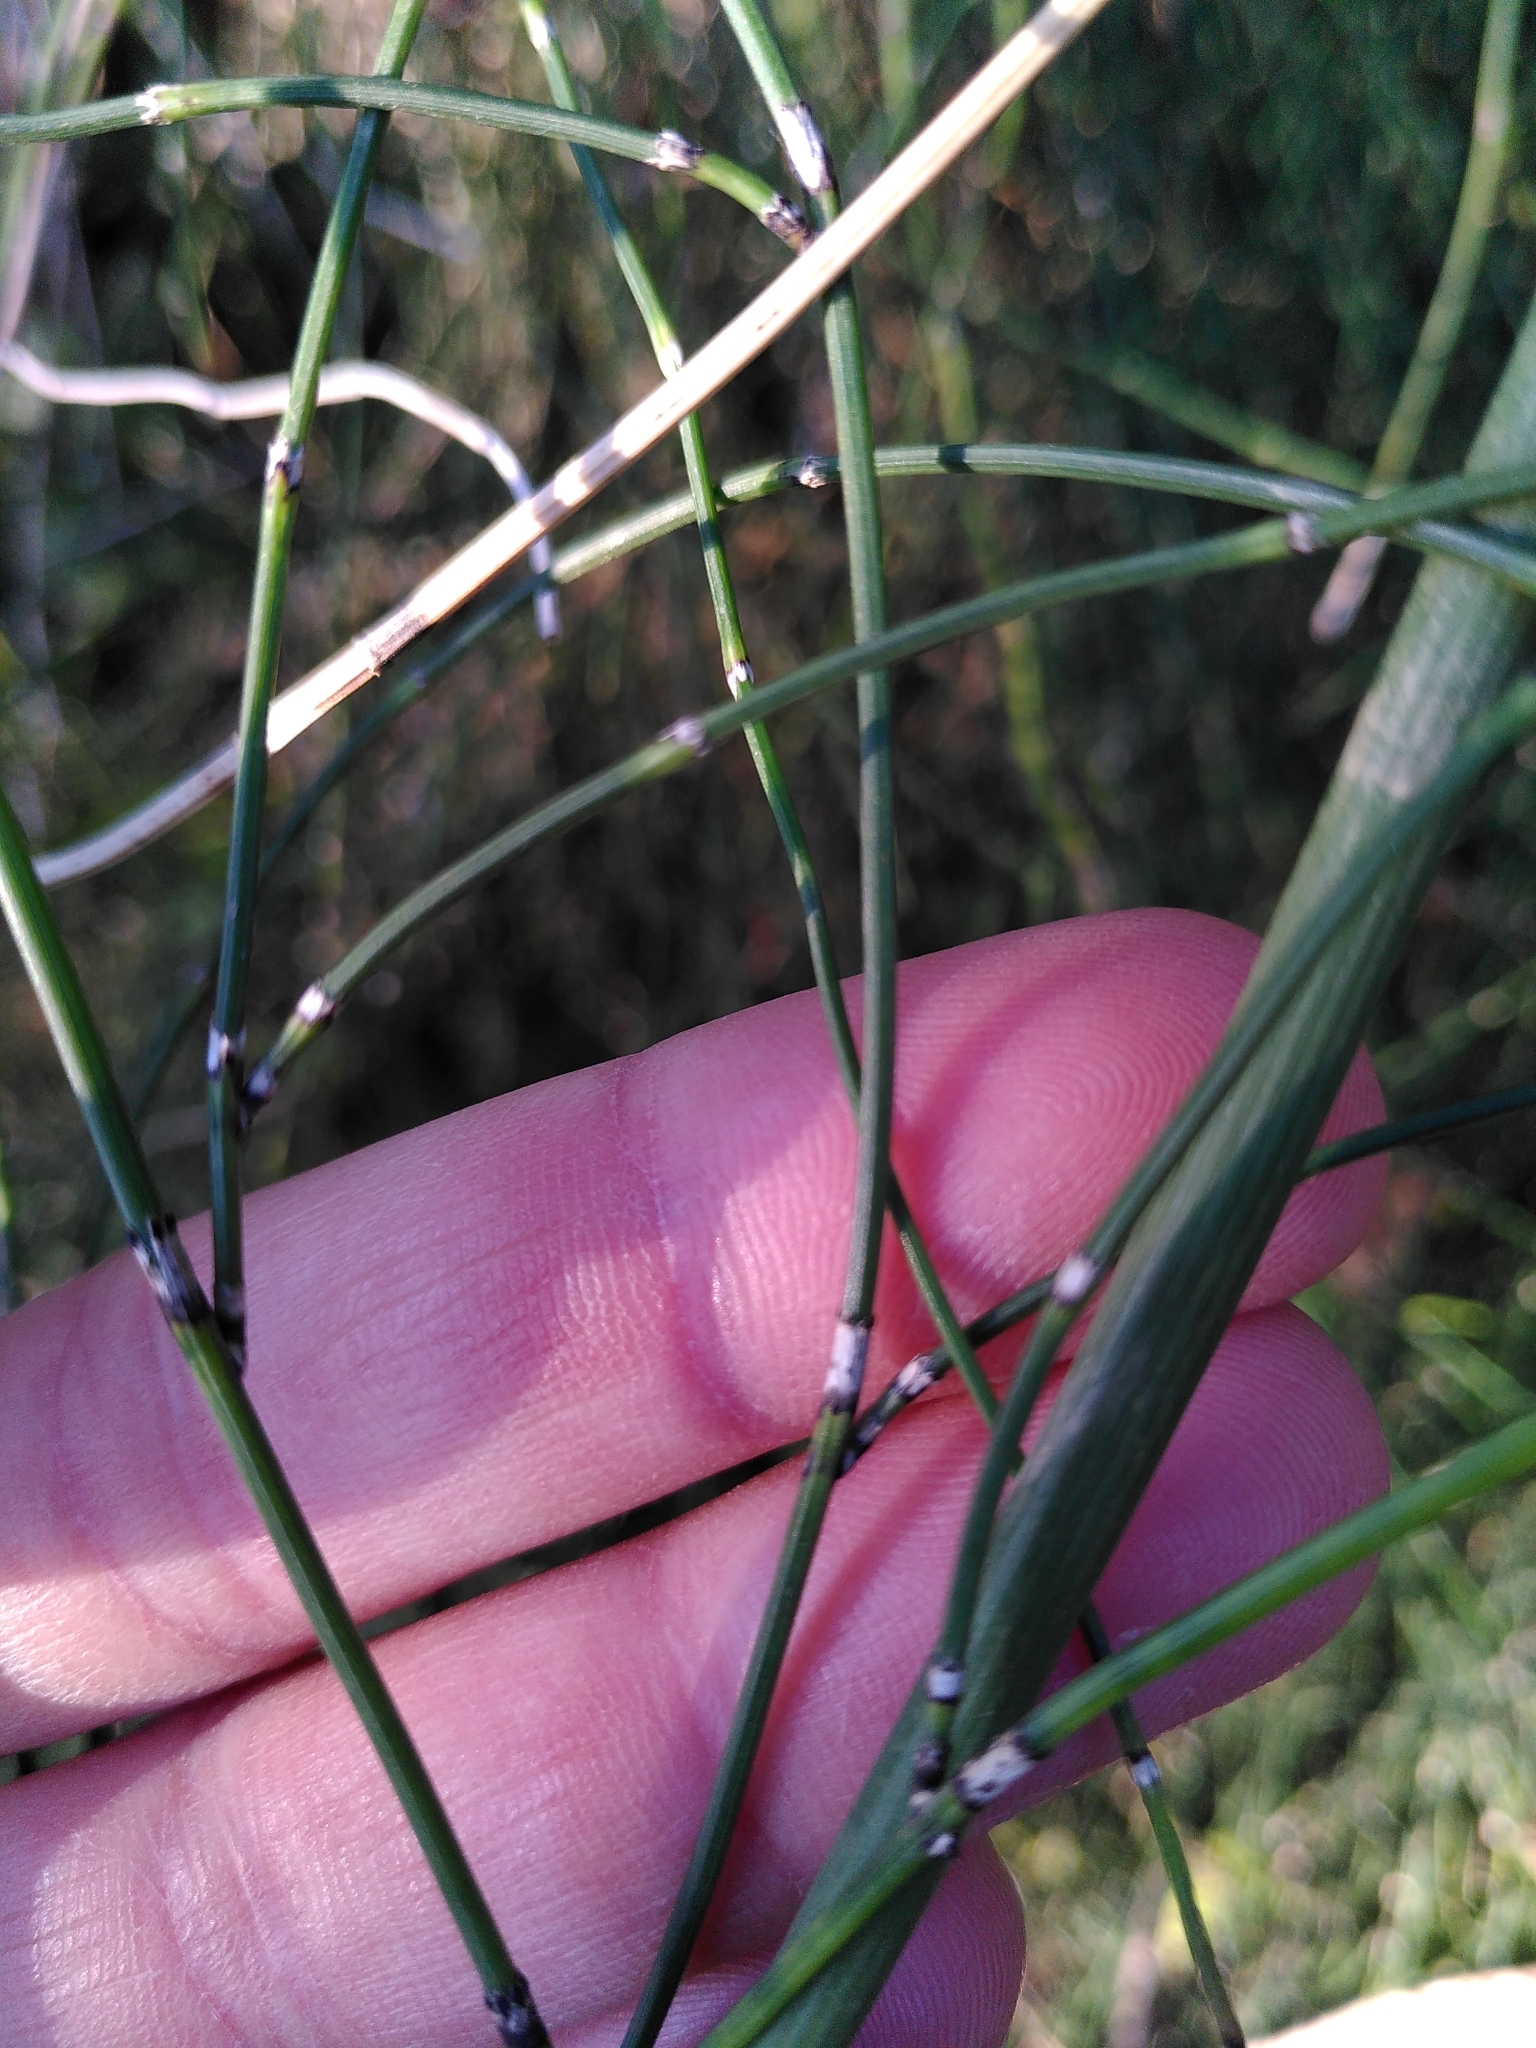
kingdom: Plantae
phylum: Tracheophyta
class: Polypodiopsida
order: Equisetales
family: Equisetaceae
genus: Equisetum
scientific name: Equisetum ramosissimum
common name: Branched horsetail
